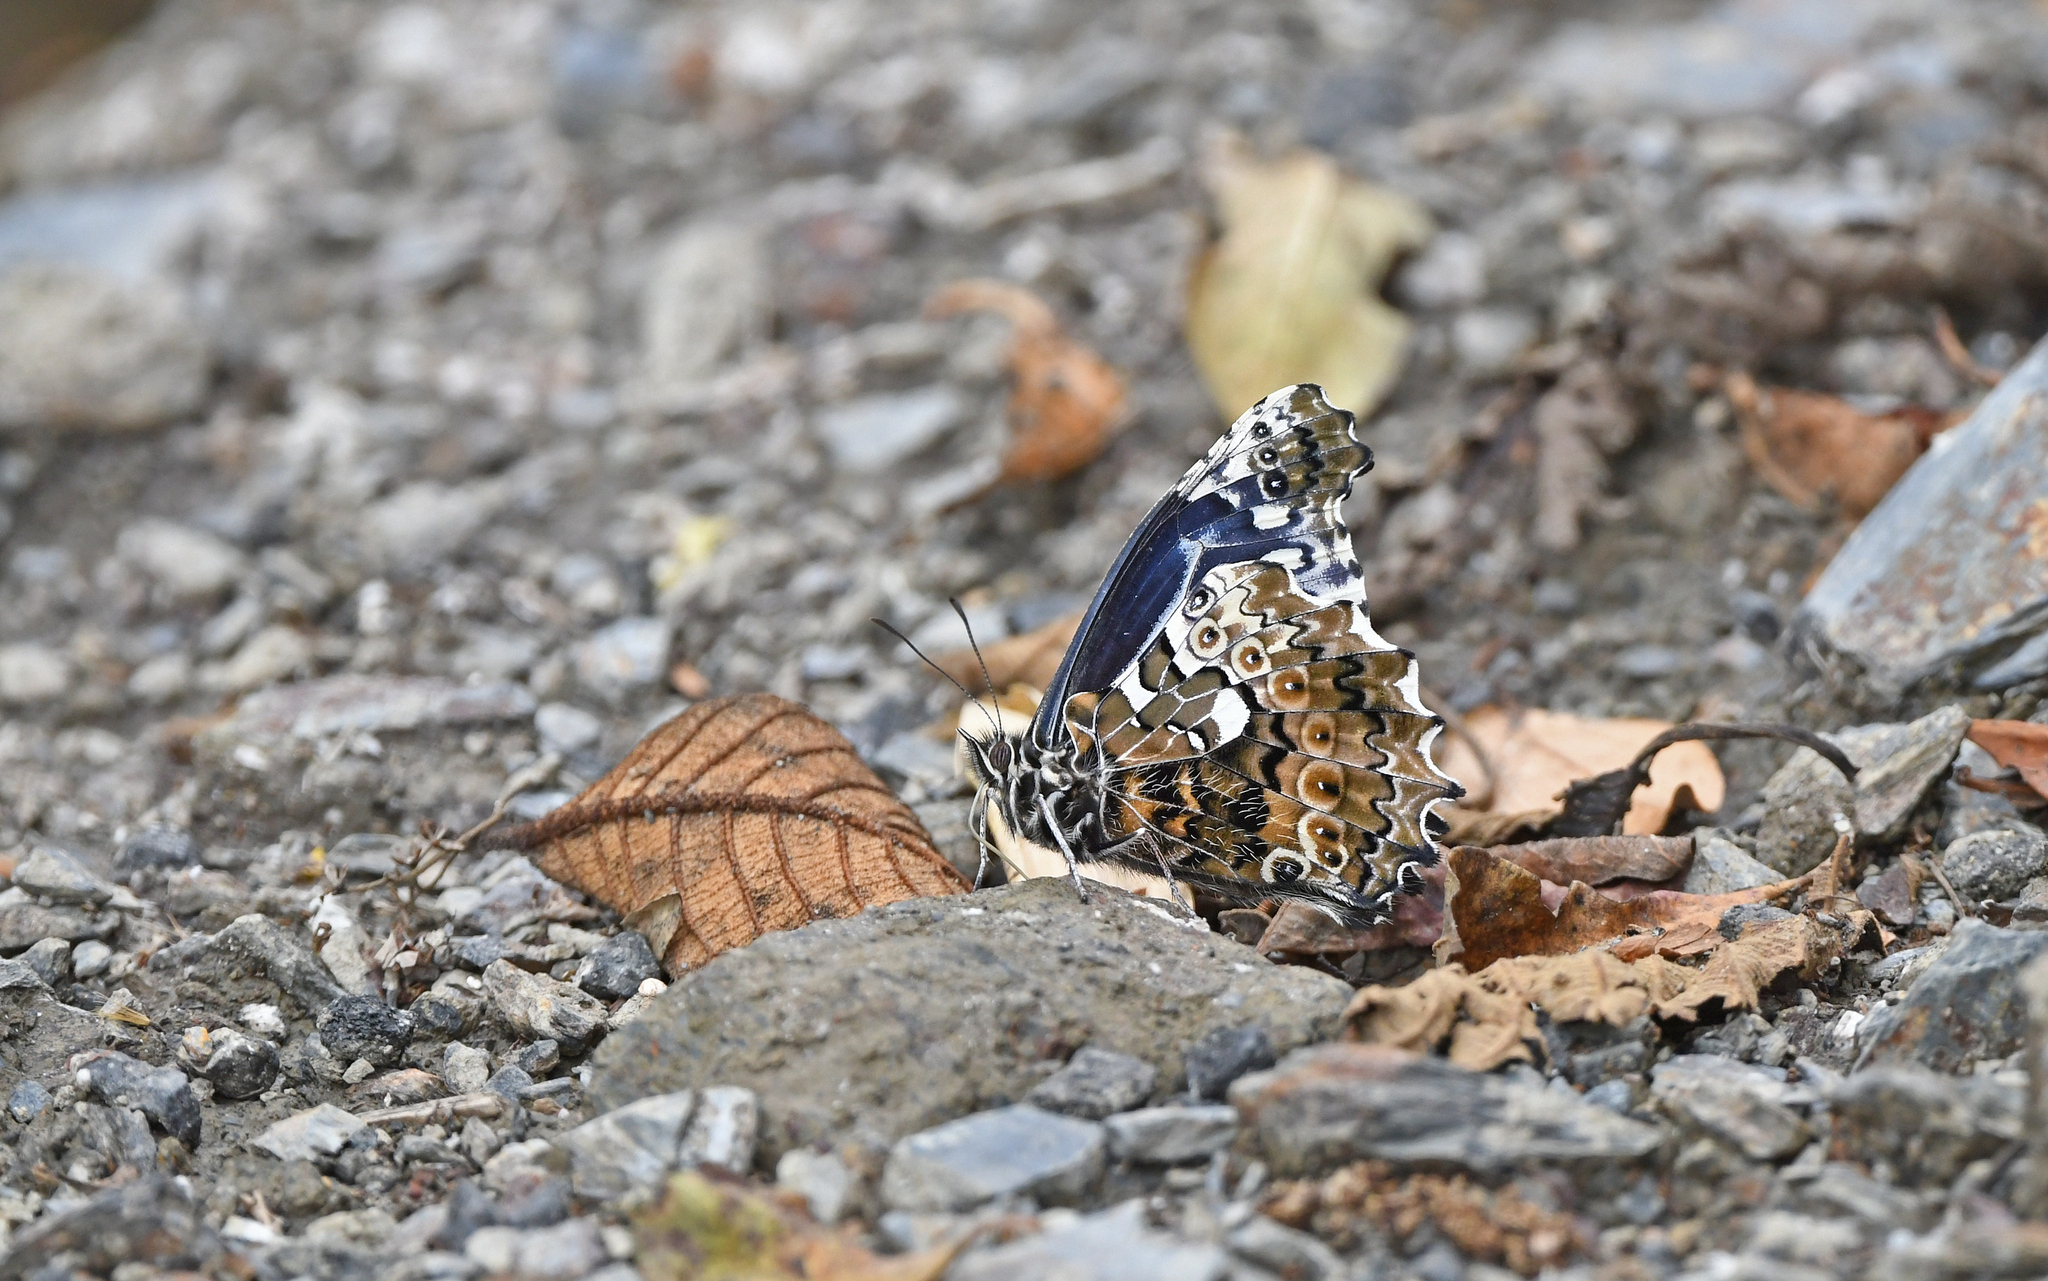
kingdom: Animalia
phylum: Arthropoda
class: Insecta
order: Lepidoptera
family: Nymphalidae
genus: Junea
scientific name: Junea dorinda
